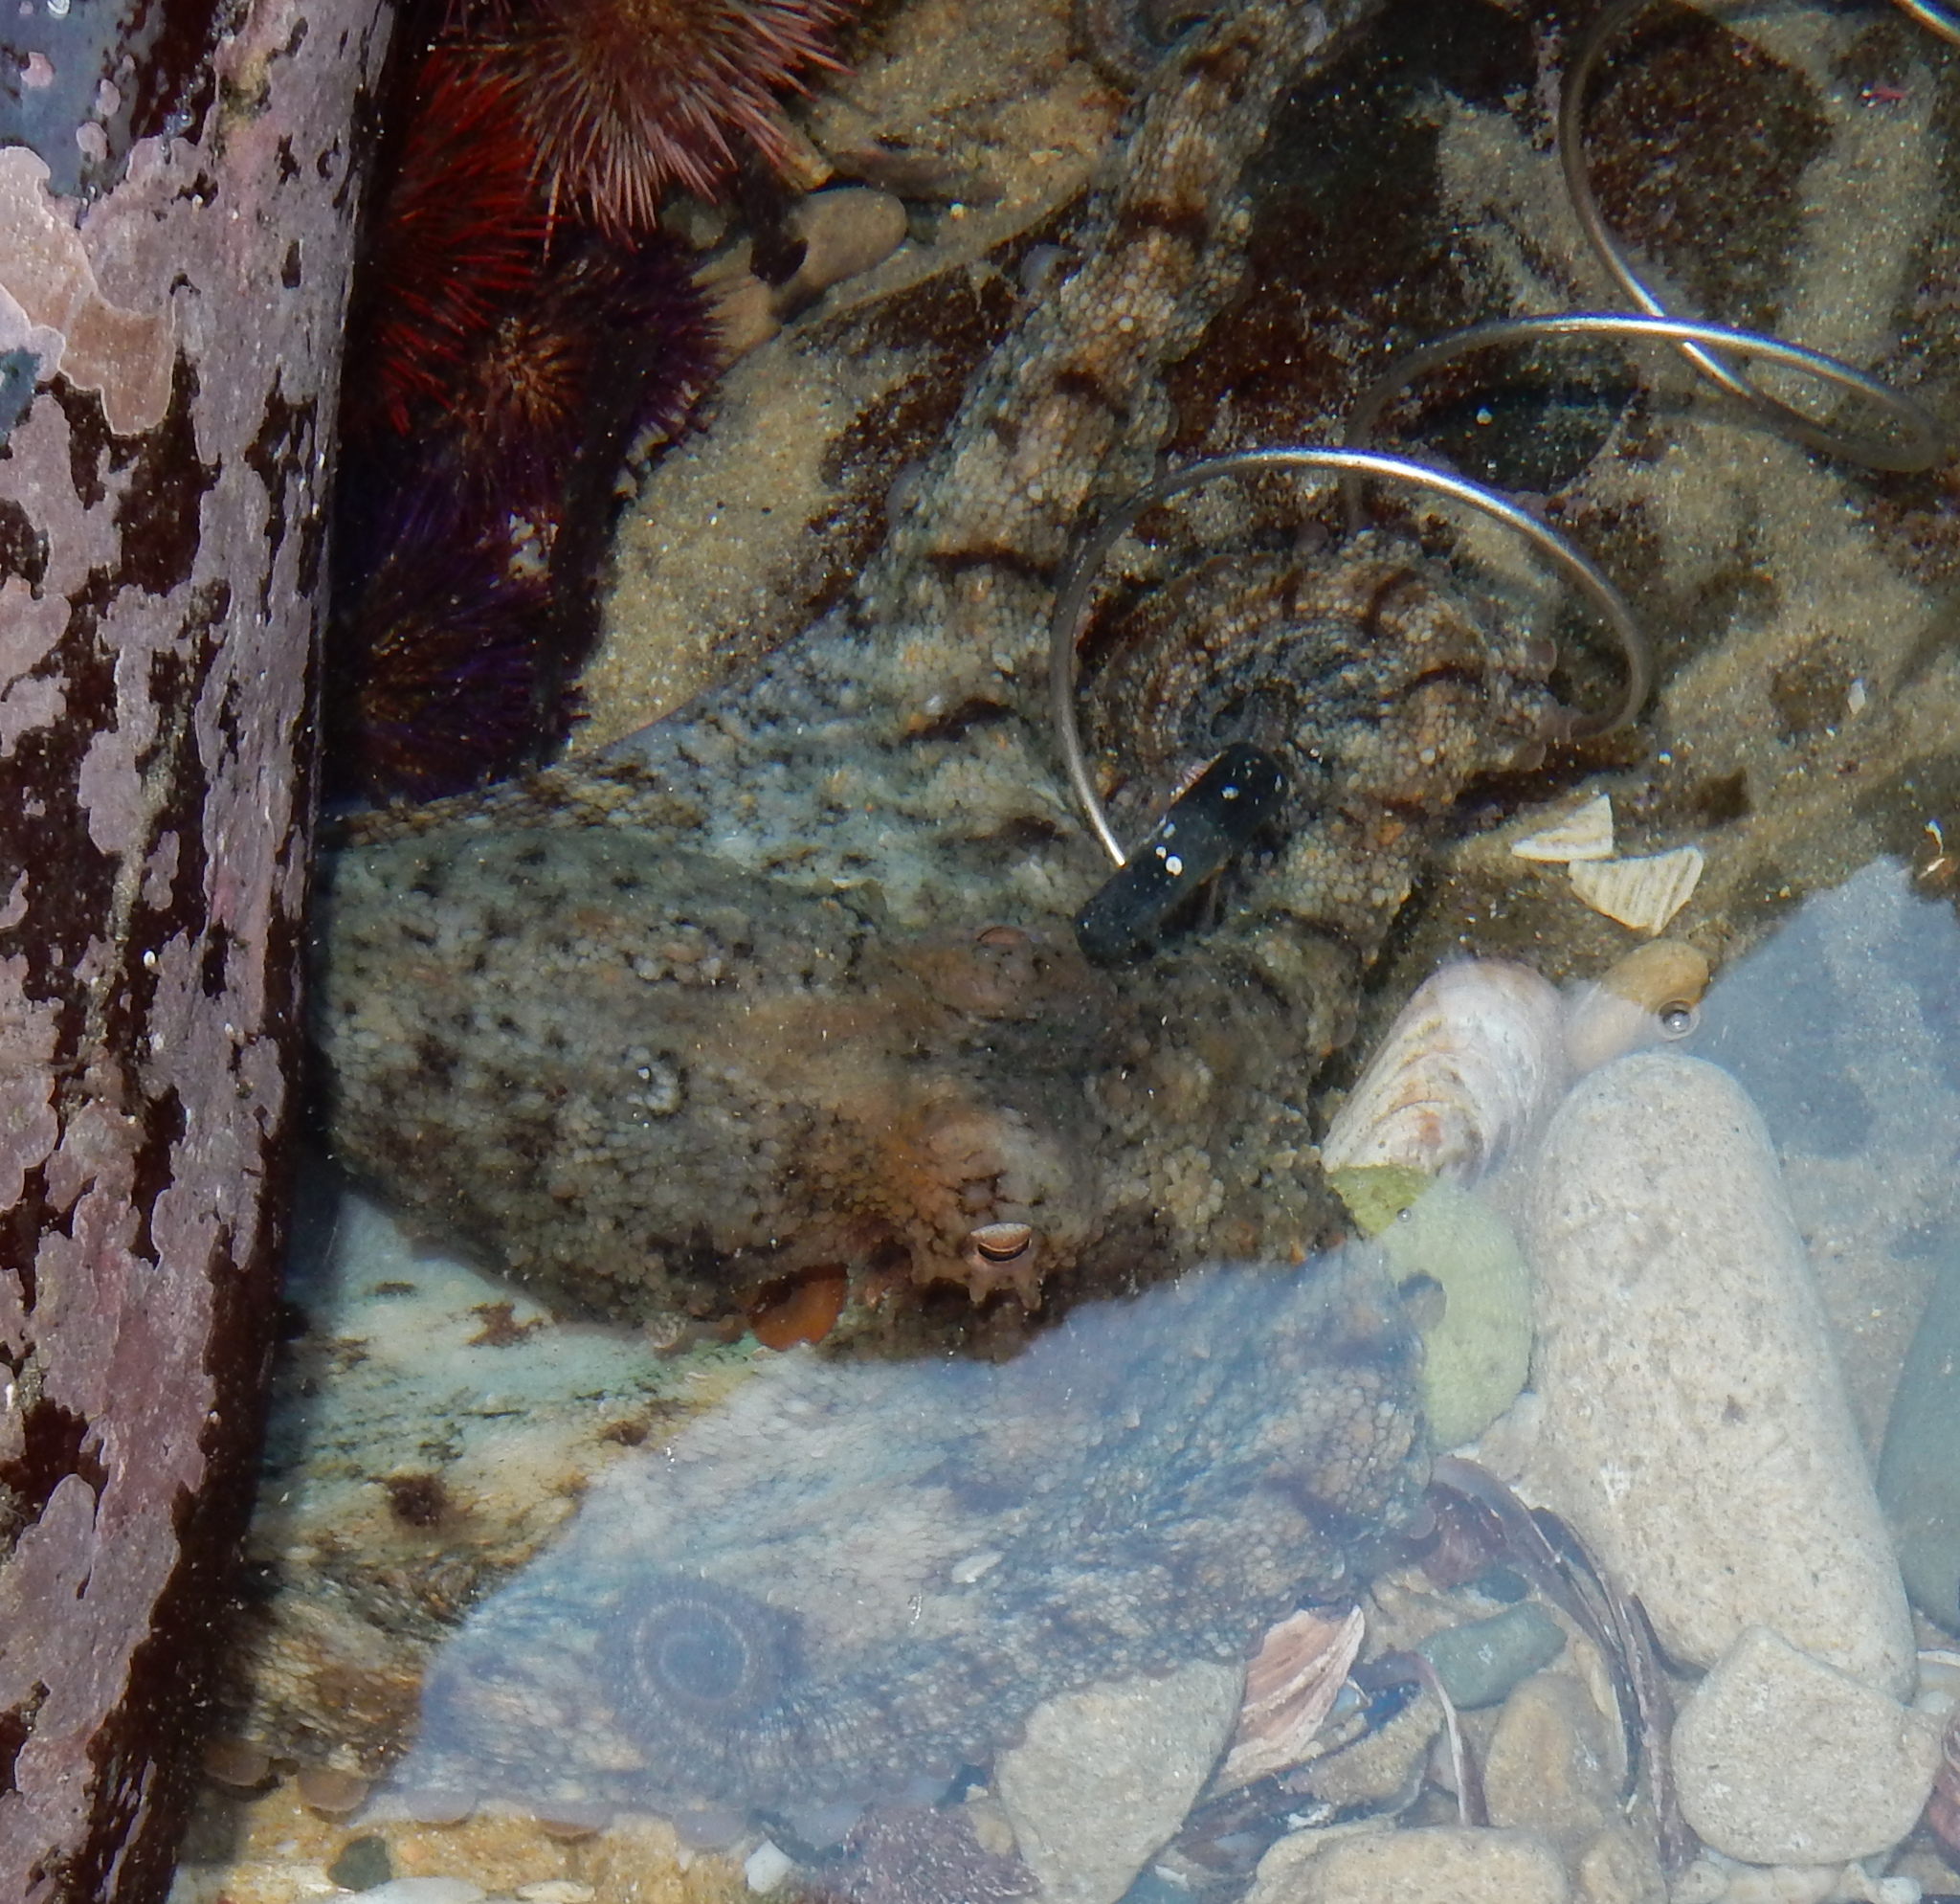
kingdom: Animalia
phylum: Mollusca
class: Cephalopoda
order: Octopoda
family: Octopodidae
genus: Octopus
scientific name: Octopus vulgaris
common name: Common octopus
